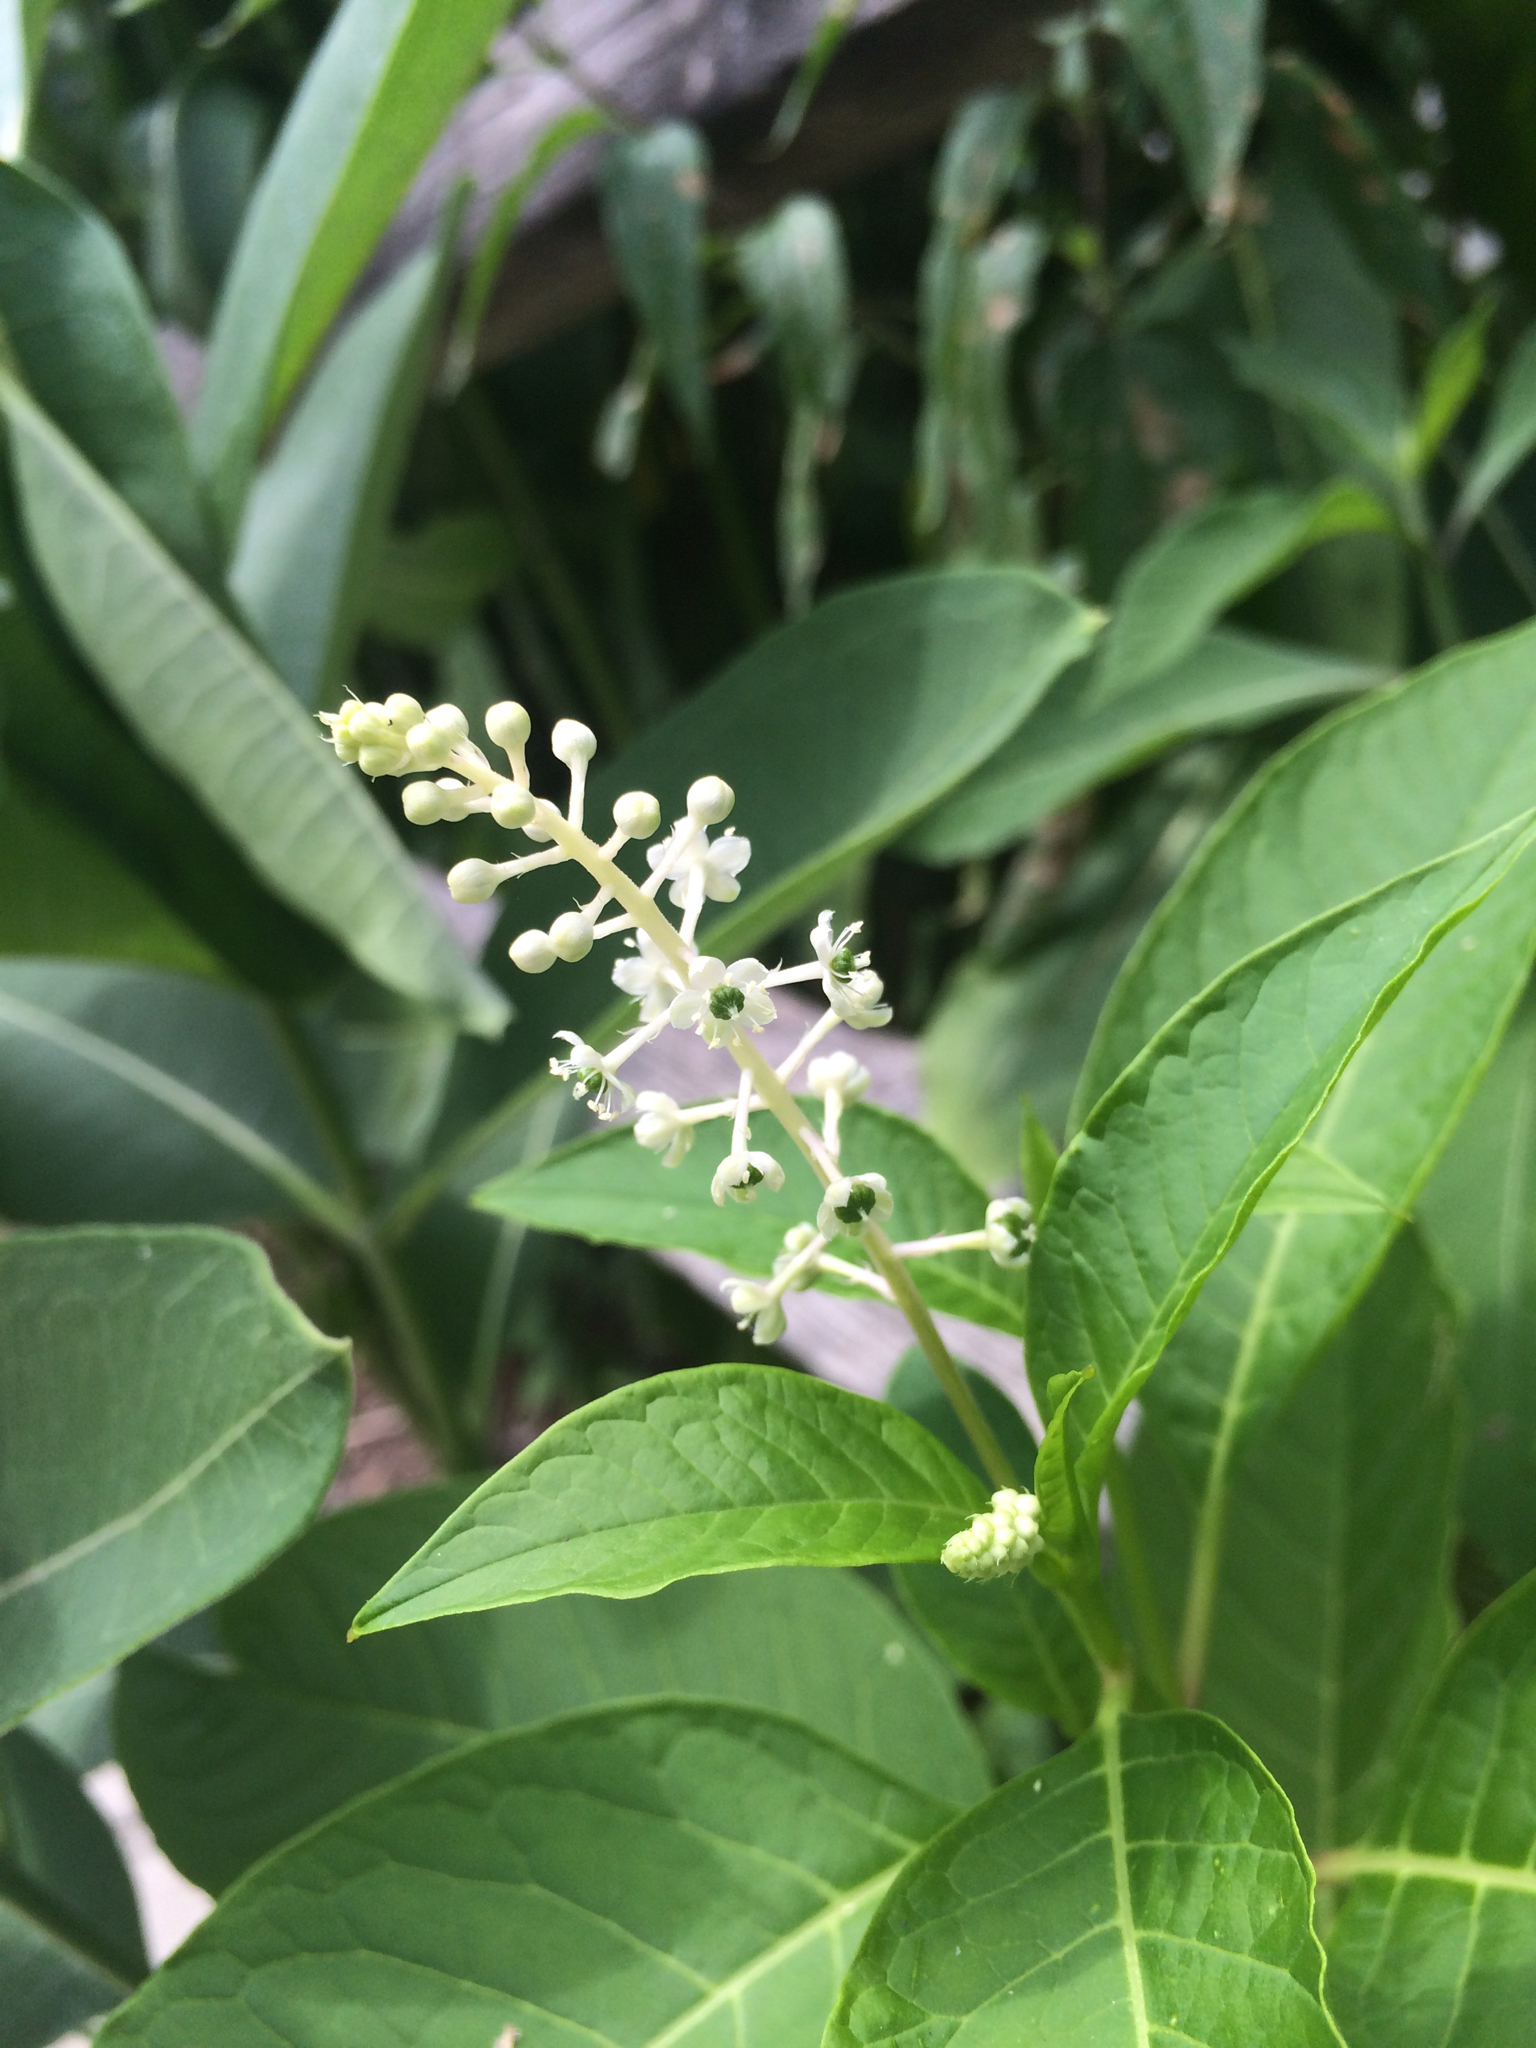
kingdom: Plantae
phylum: Tracheophyta
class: Magnoliopsida
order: Caryophyllales
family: Phytolaccaceae
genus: Phytolacca
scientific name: Phytolacca americana
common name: American pokeweed
